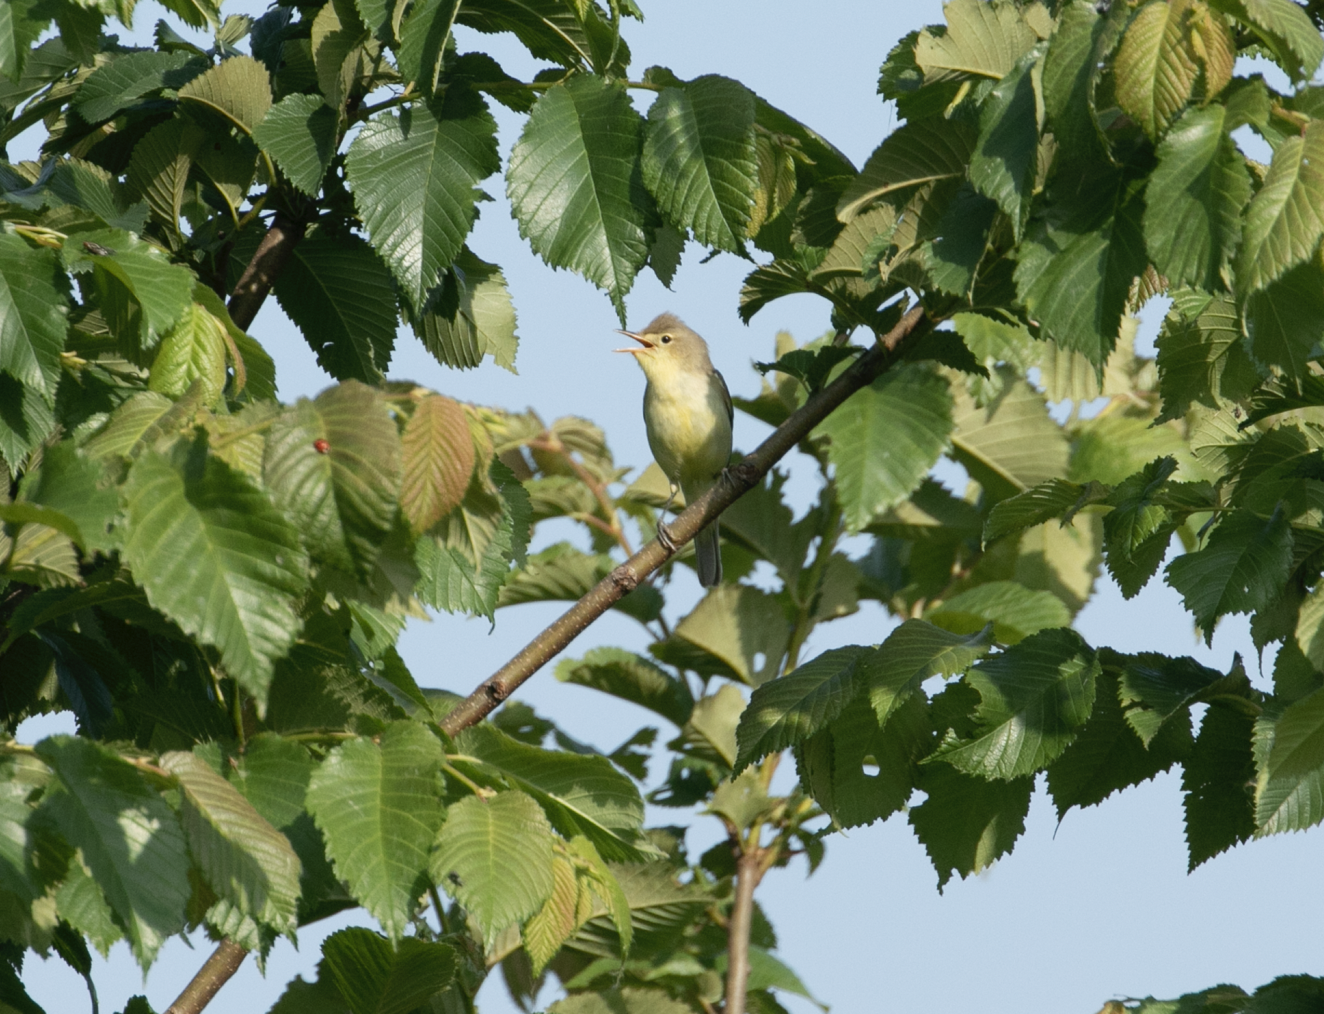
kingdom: Animalia
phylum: Chordata
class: Aves
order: Passeriformes
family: Acrocephalidae
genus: Hippolais
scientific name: Hippolais polyglotta
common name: Melodious warbler
